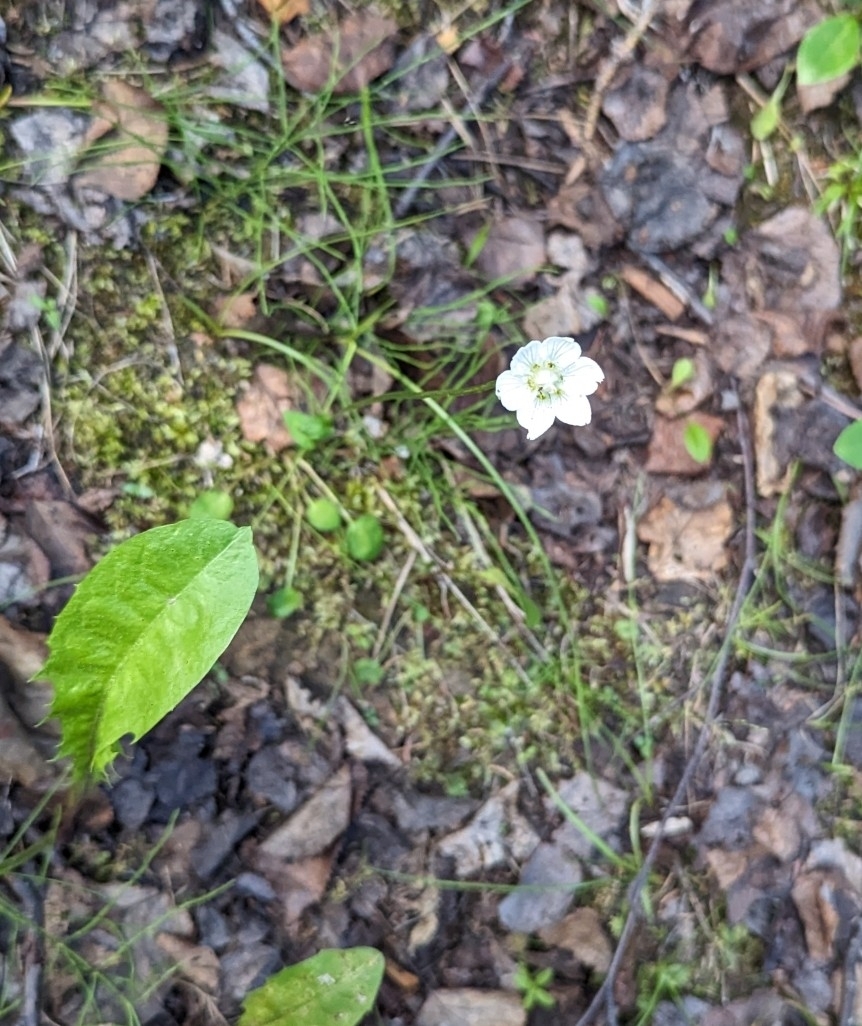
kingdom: Plantae
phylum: Tracheophyta
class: Magnoliopsida
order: Celastrales
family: Parnassiaceae
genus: Parnassia
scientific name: Parnassia palustris
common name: Grass-of-parnassus
